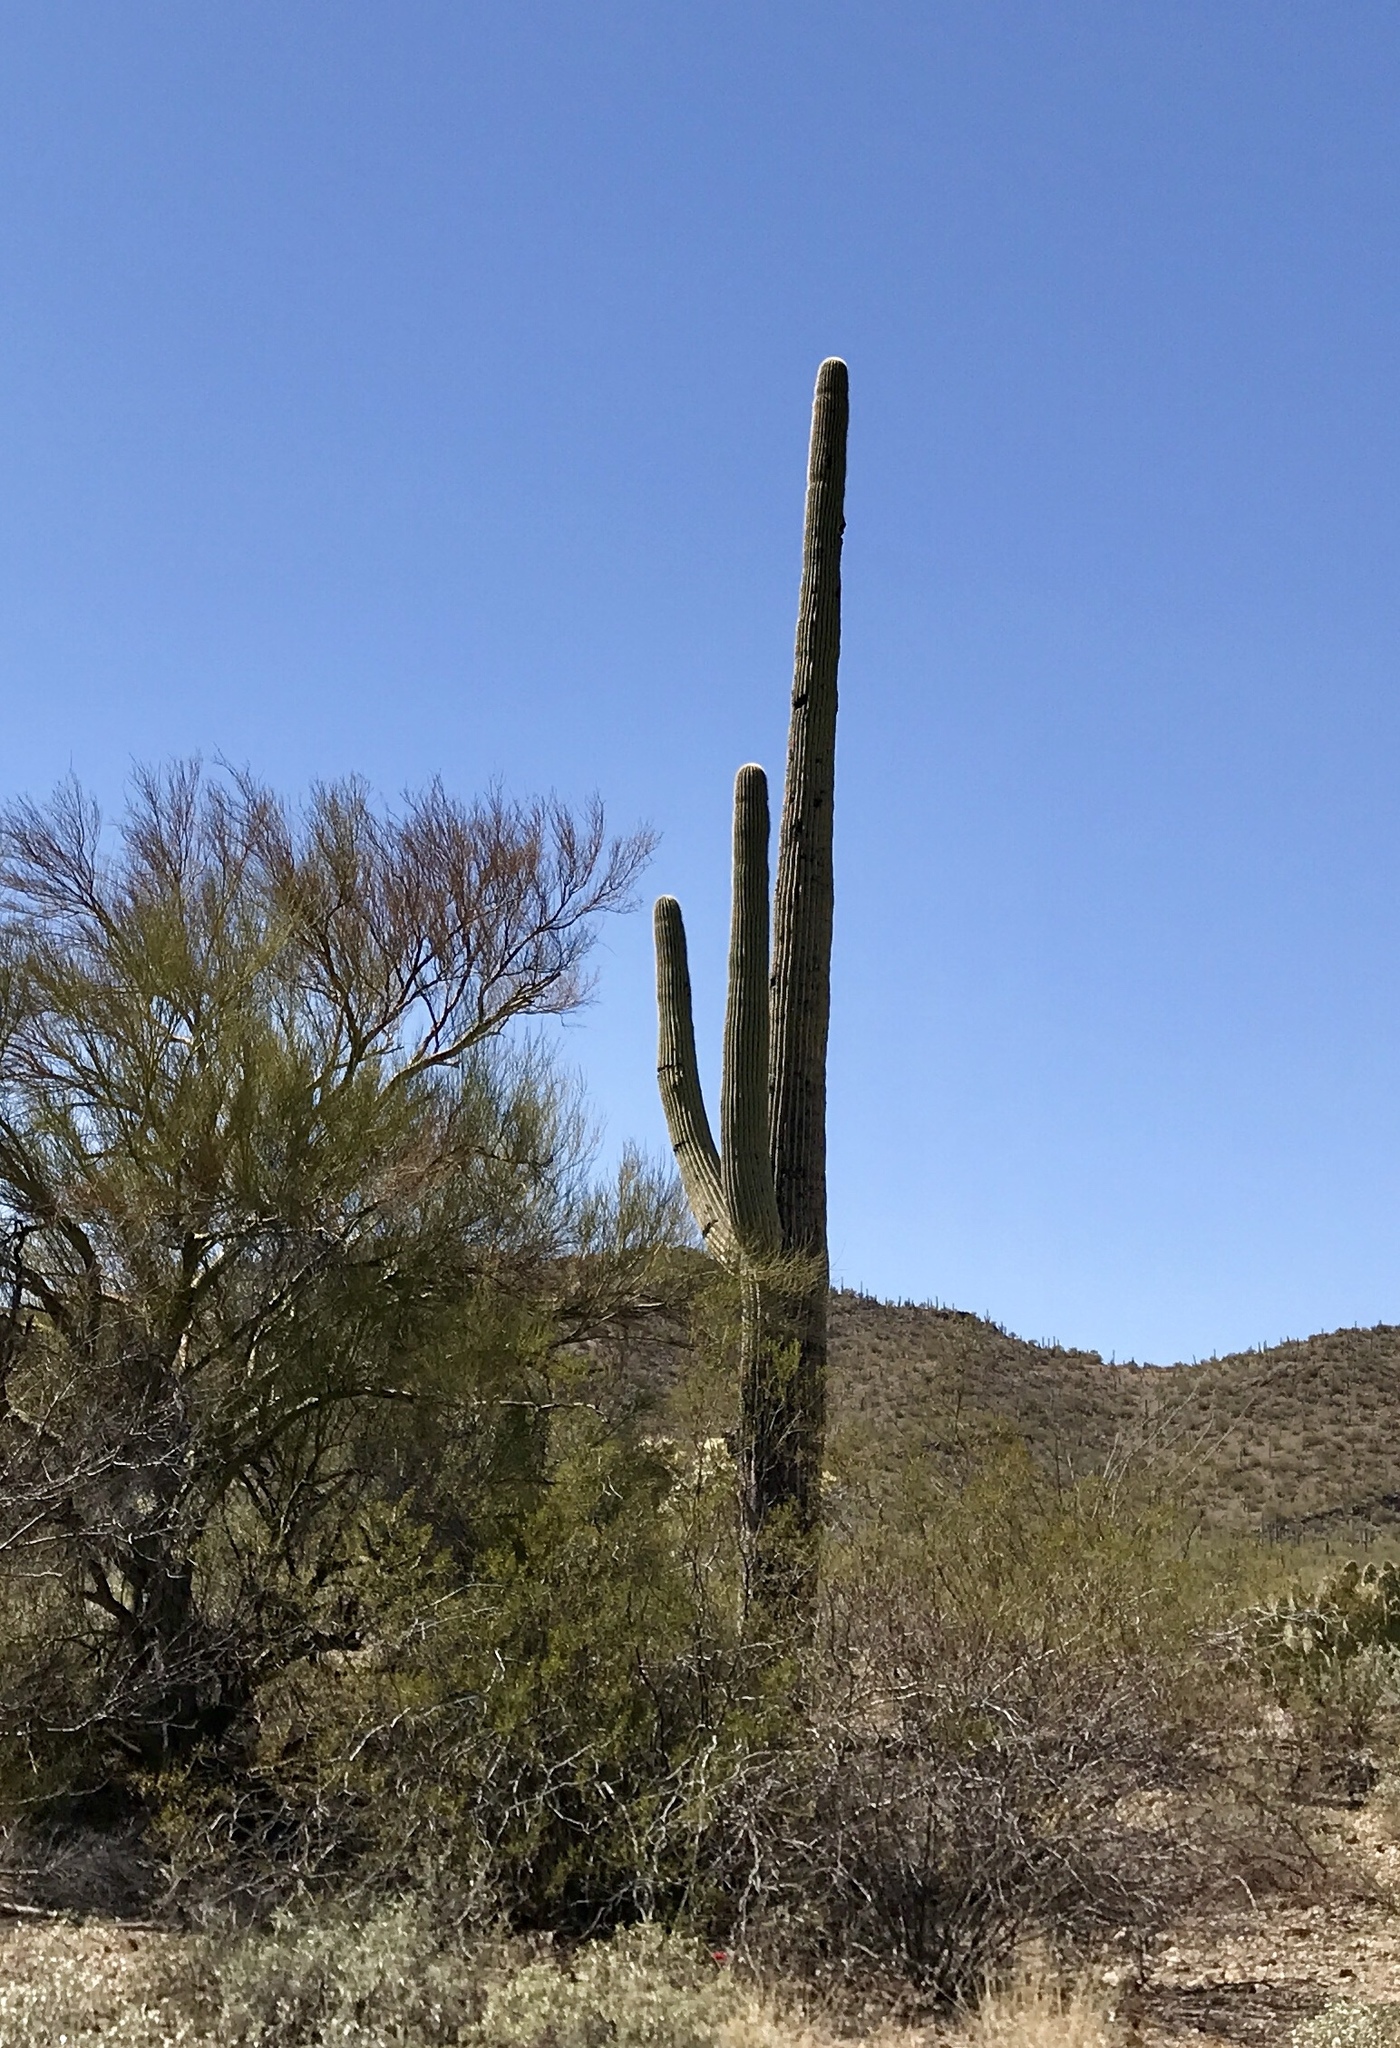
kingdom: Plantae
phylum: Tracheophyta
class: Magnoliopsida
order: Caryophyllales
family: Cactaceae
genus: Carnegiea
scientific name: Carnegiea gigantea
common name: Saguaro
